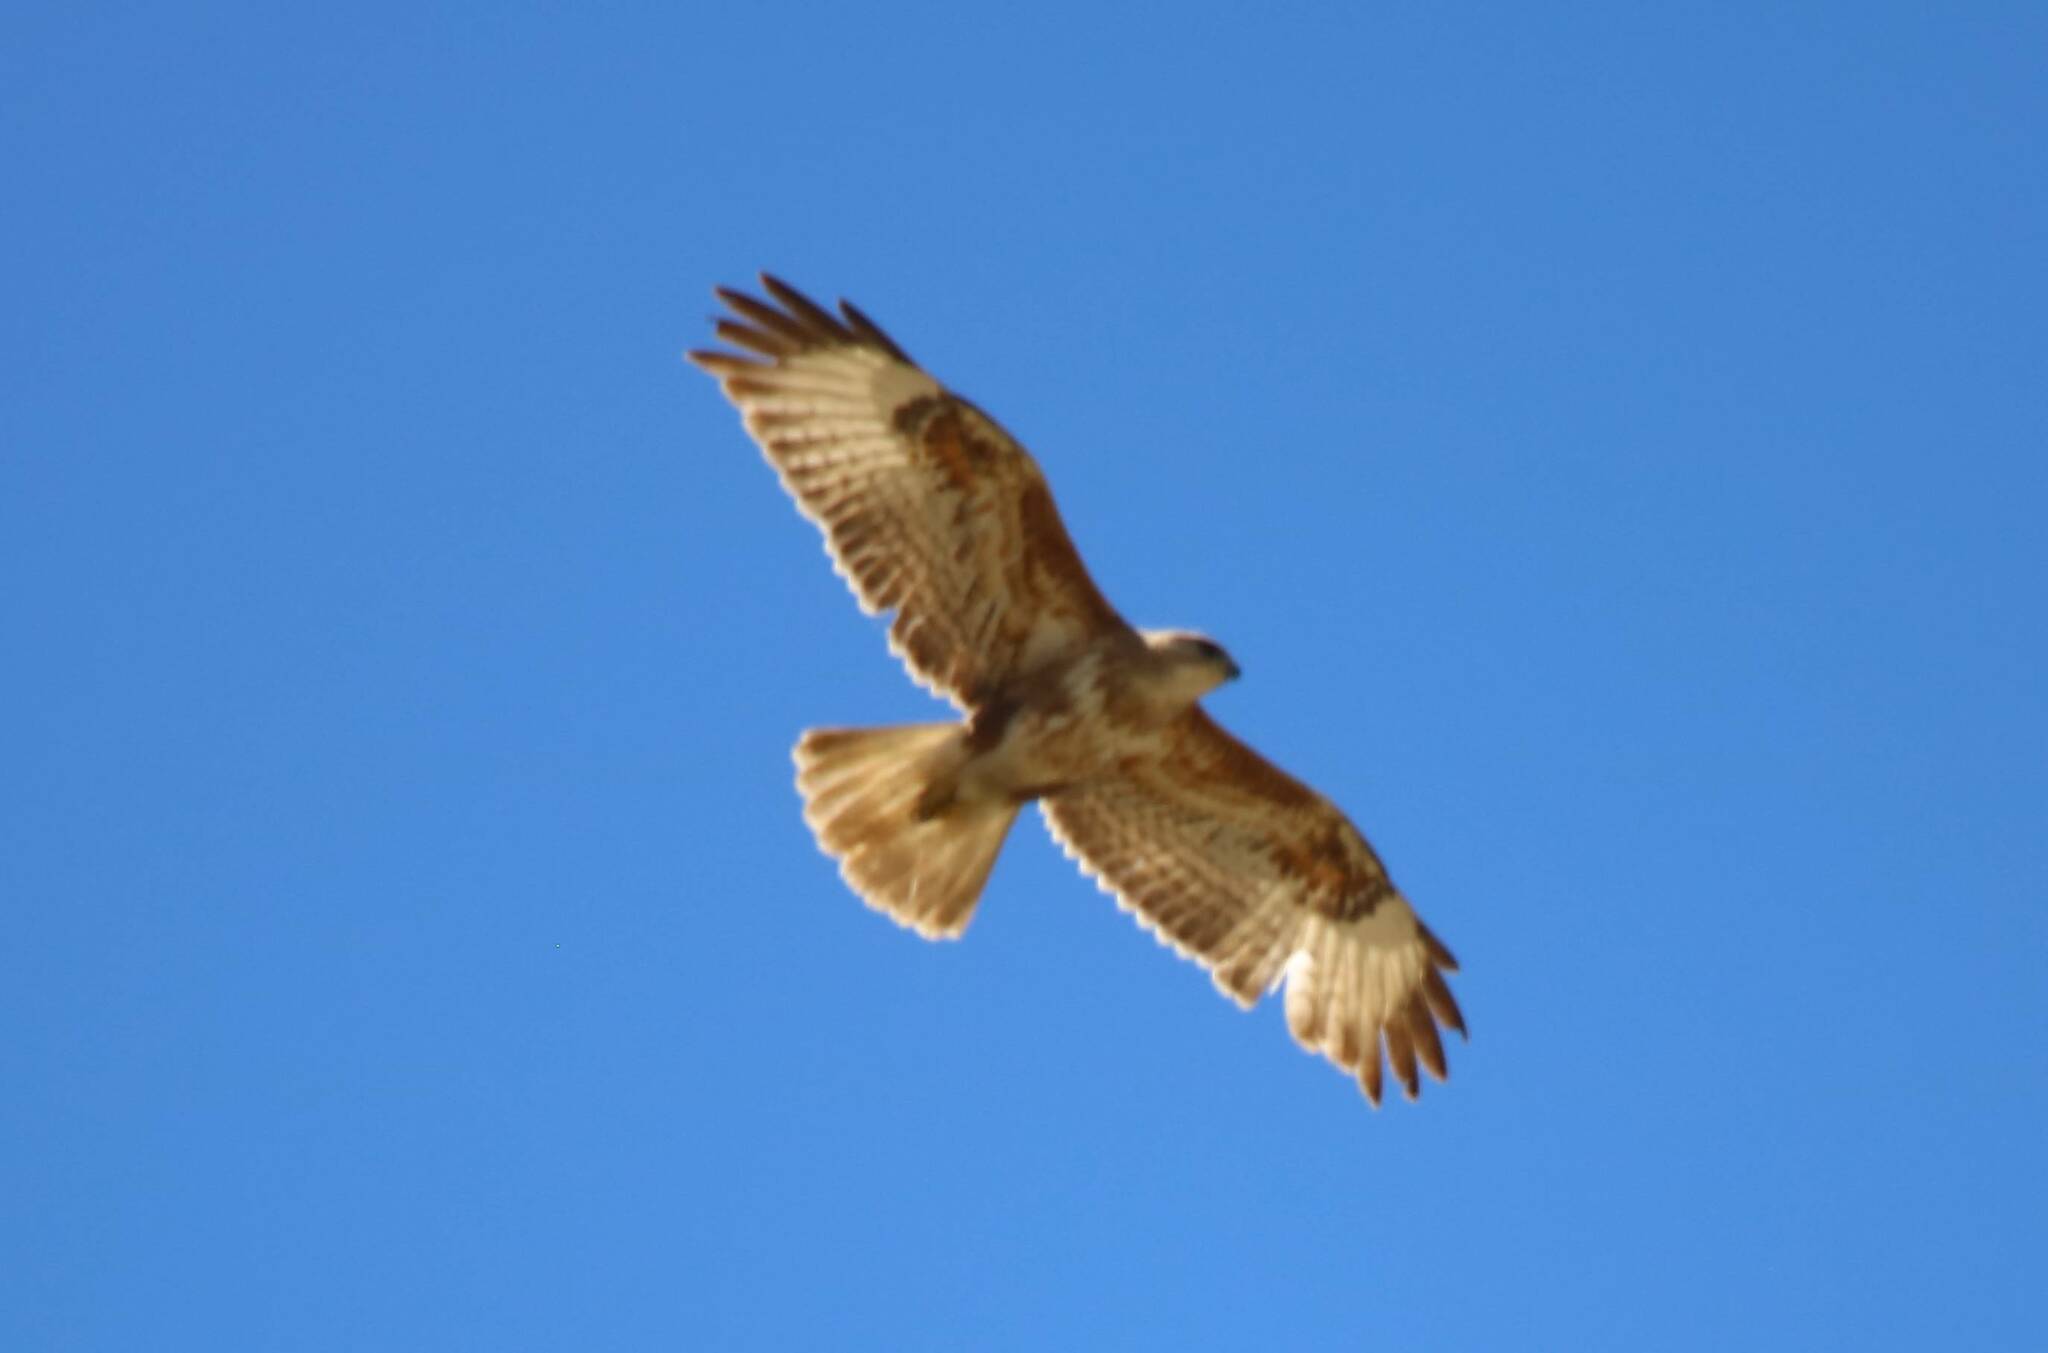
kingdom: Animalia
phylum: Chordata
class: Aves
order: Accipitriformes
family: Accipitridae
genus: Buteo
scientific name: Buteo buteo
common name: Common buzzard
